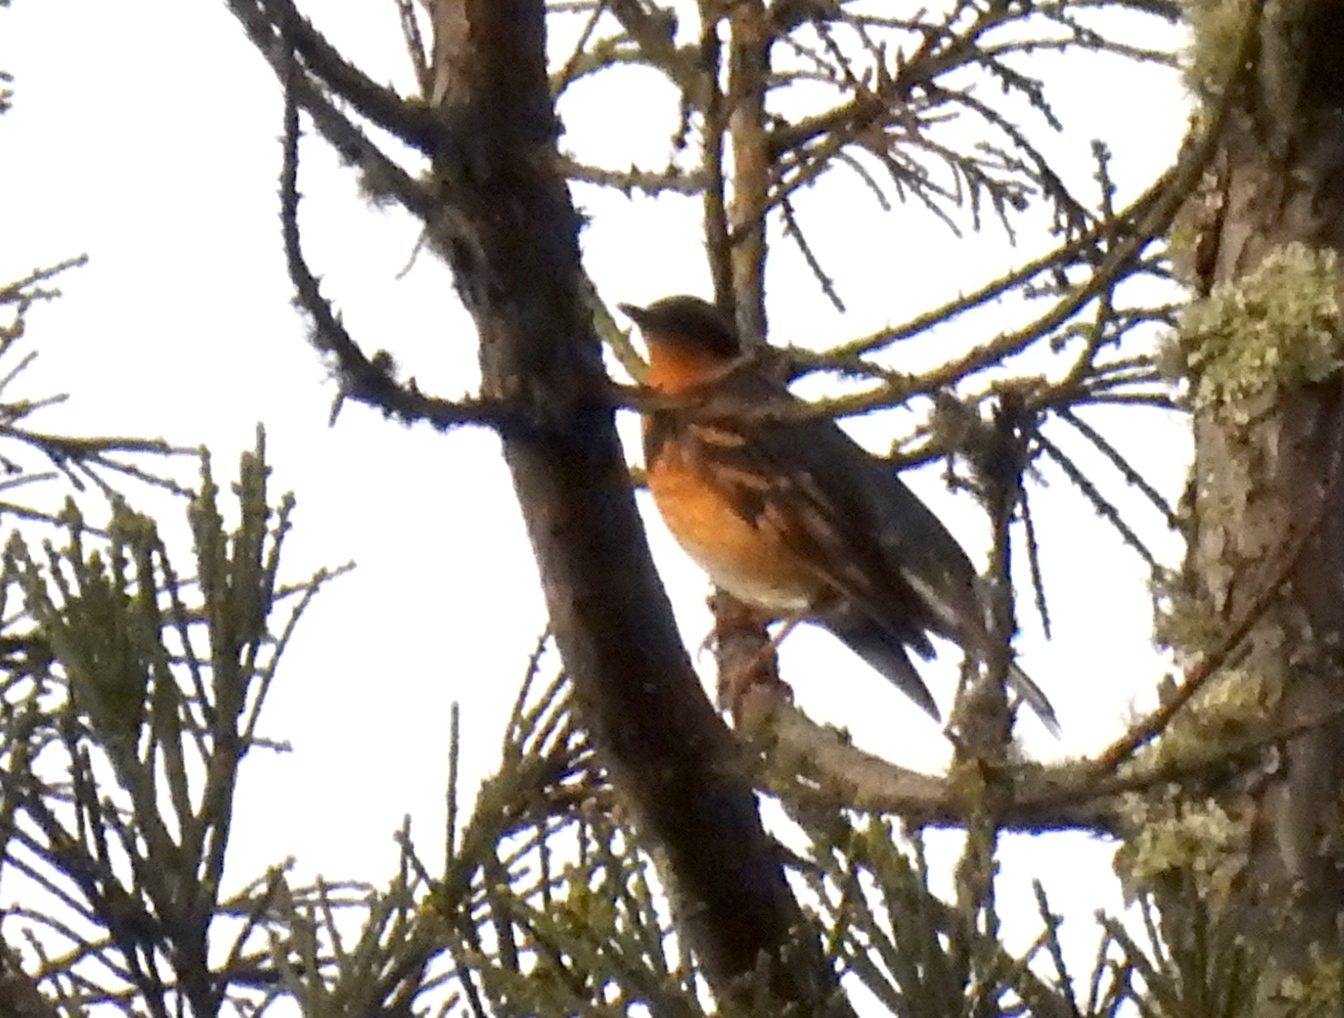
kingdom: Animalia
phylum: Chordata
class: Aves
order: Passeriformes
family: Turdidae
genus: Ixoreus
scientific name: Ixoreus naevius
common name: Varied thrush
